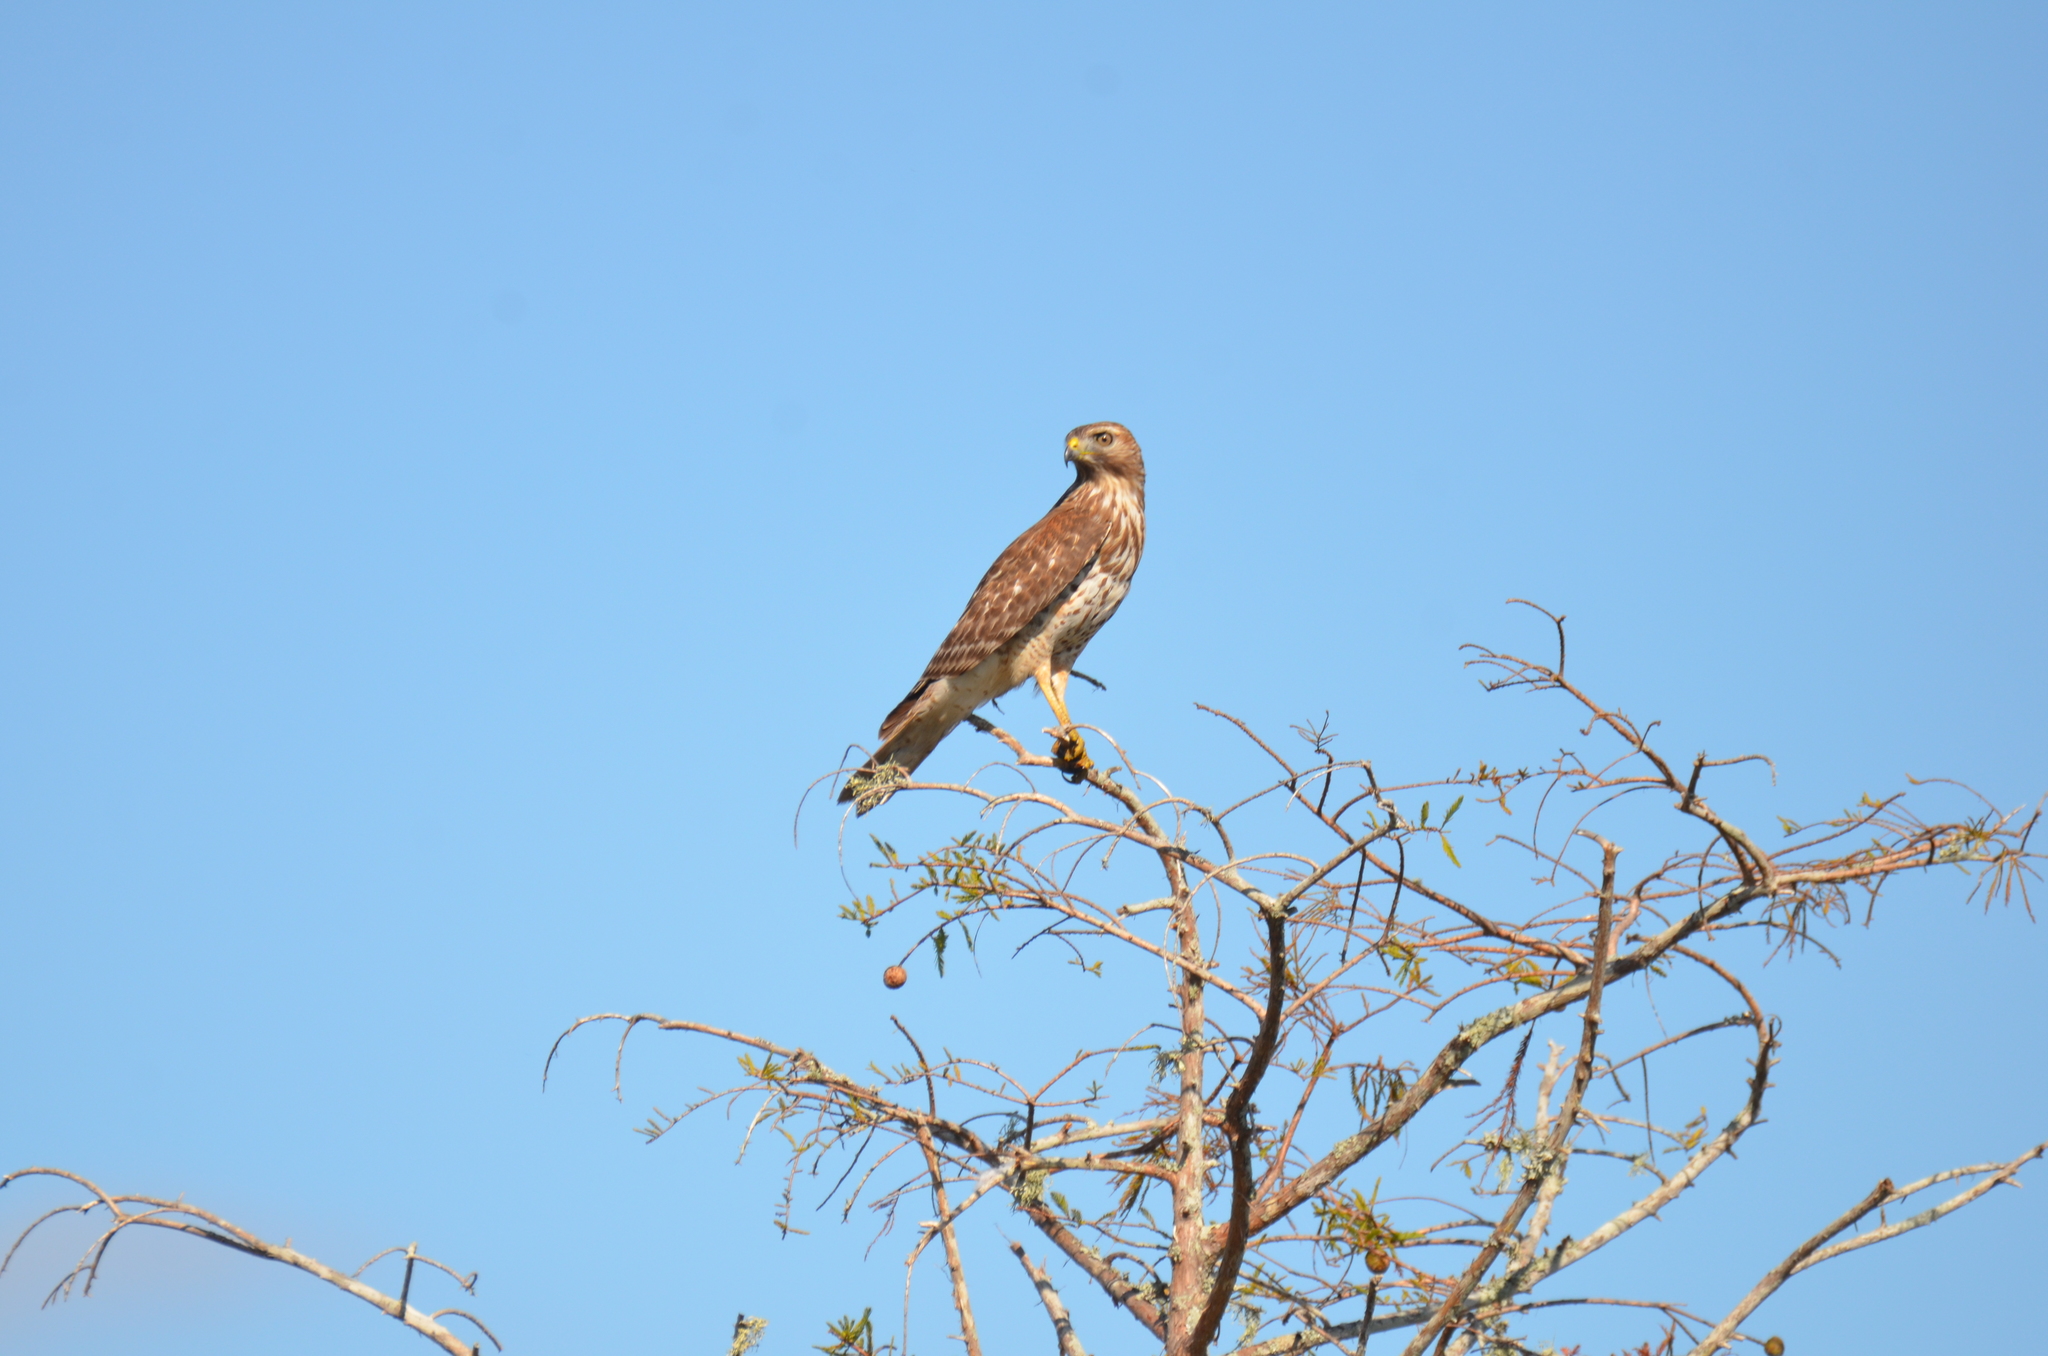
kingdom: Animalia
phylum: Chordata
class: Aves
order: Accipitriformes
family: Accipitridae
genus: Buteo
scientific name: Buteo lineatus
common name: Red-shouldered hawk
